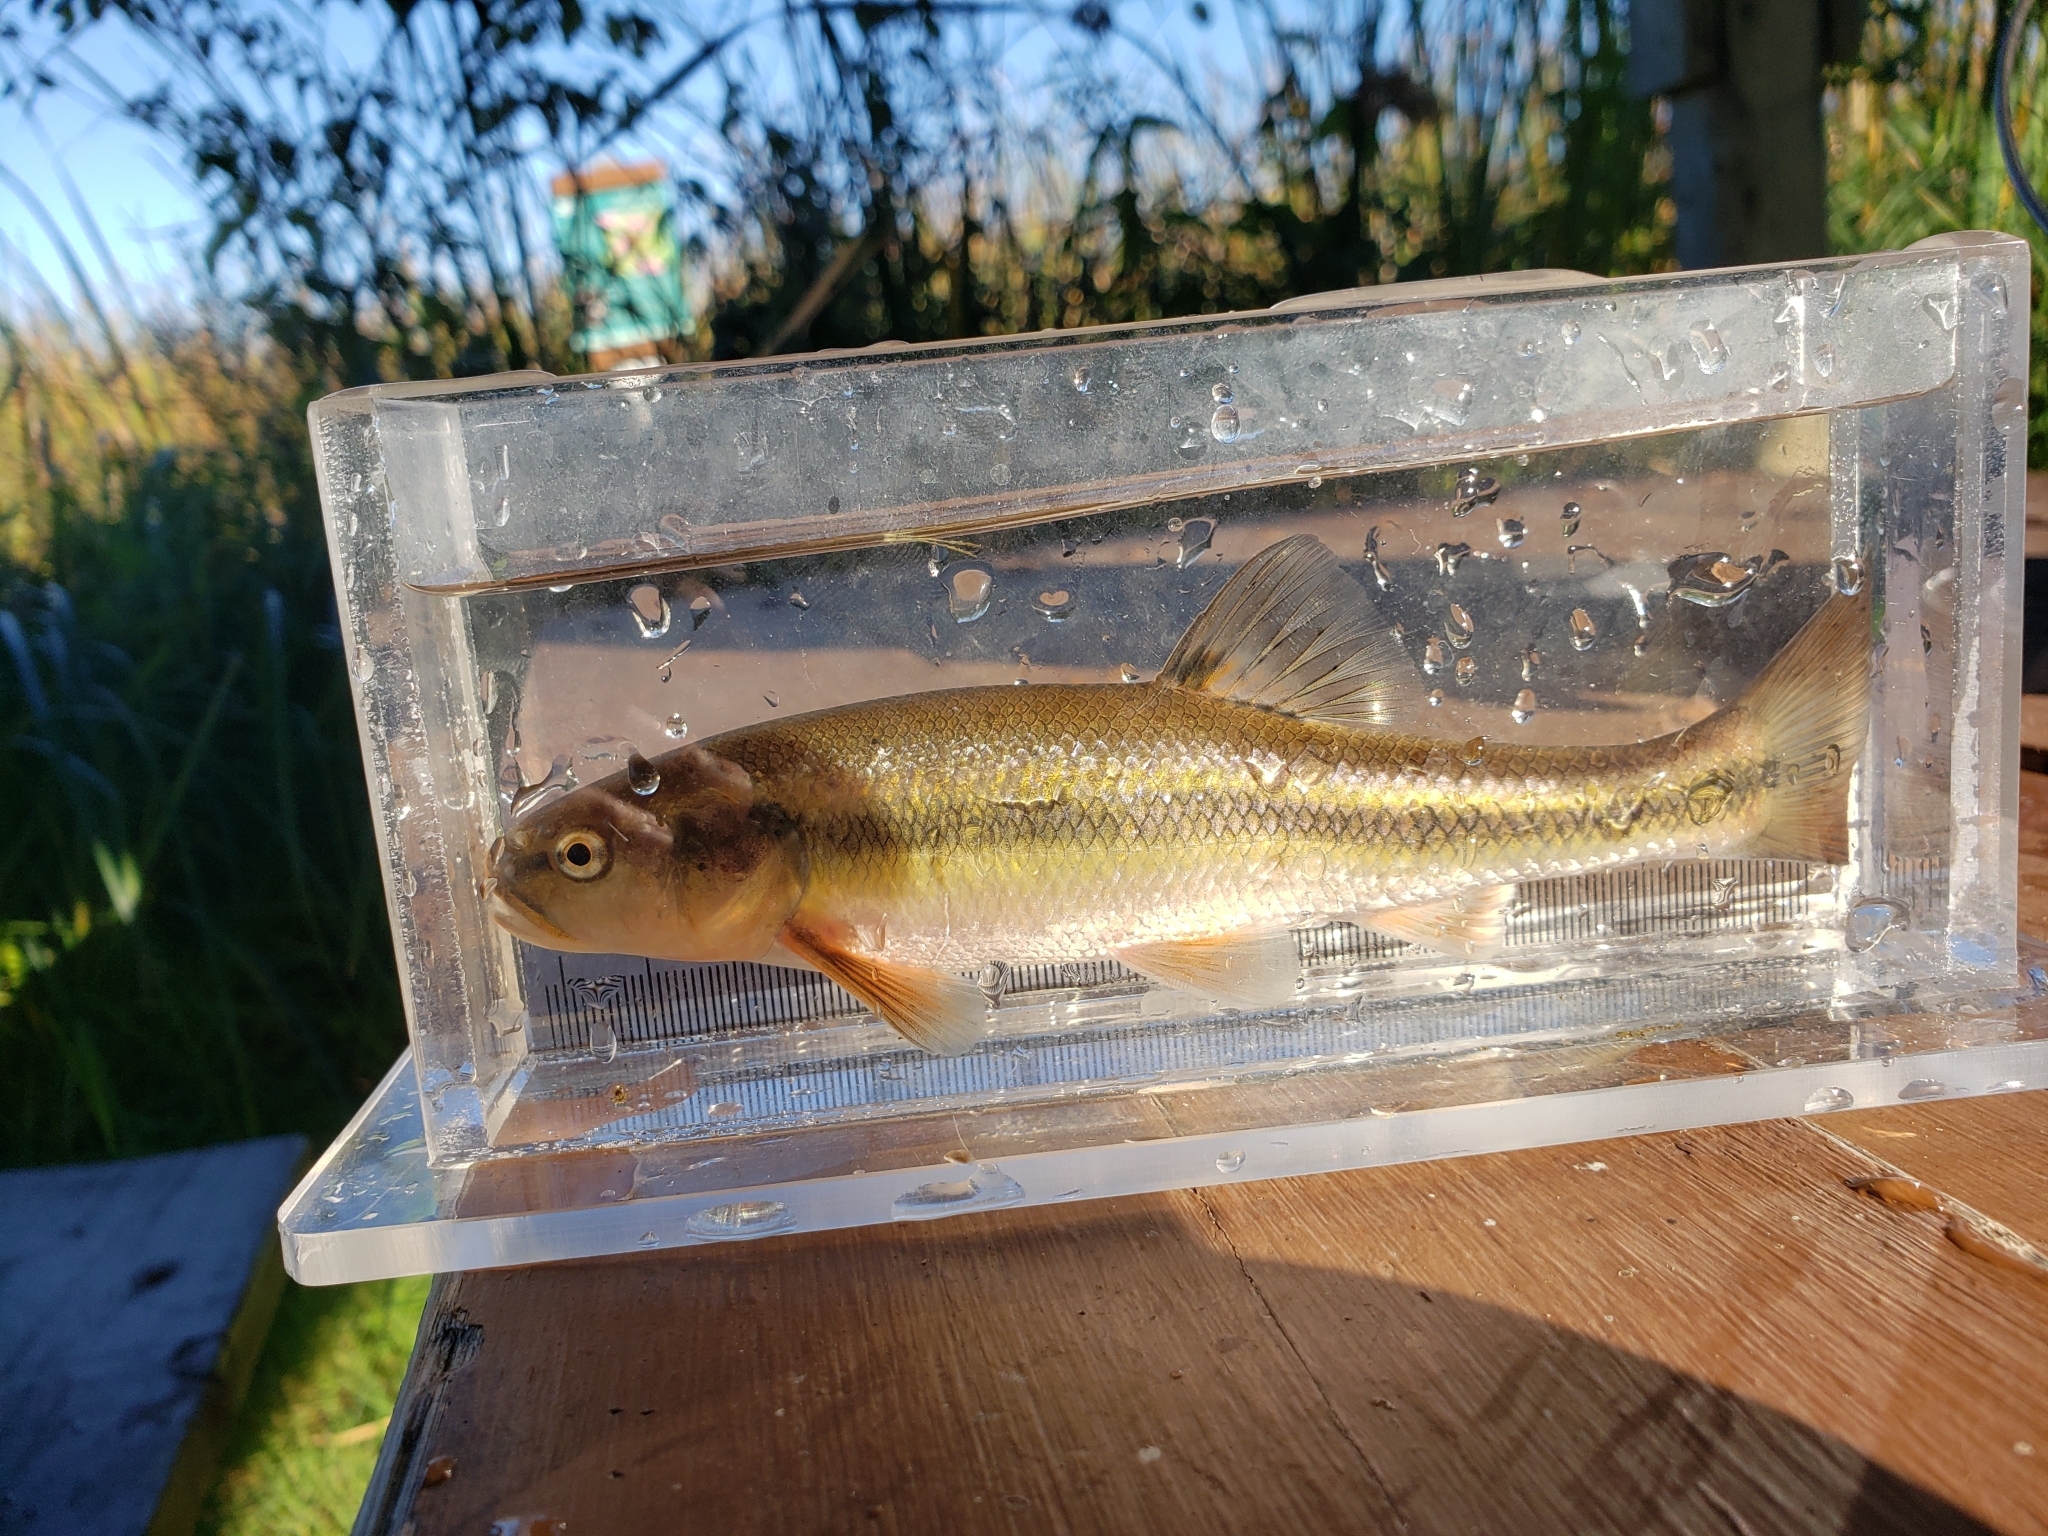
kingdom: Animalia
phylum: Chordata
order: Cypriniformes
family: Cyprinidae
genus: Semotilus
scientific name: Semotilus atromaculatus
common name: Creek chub
